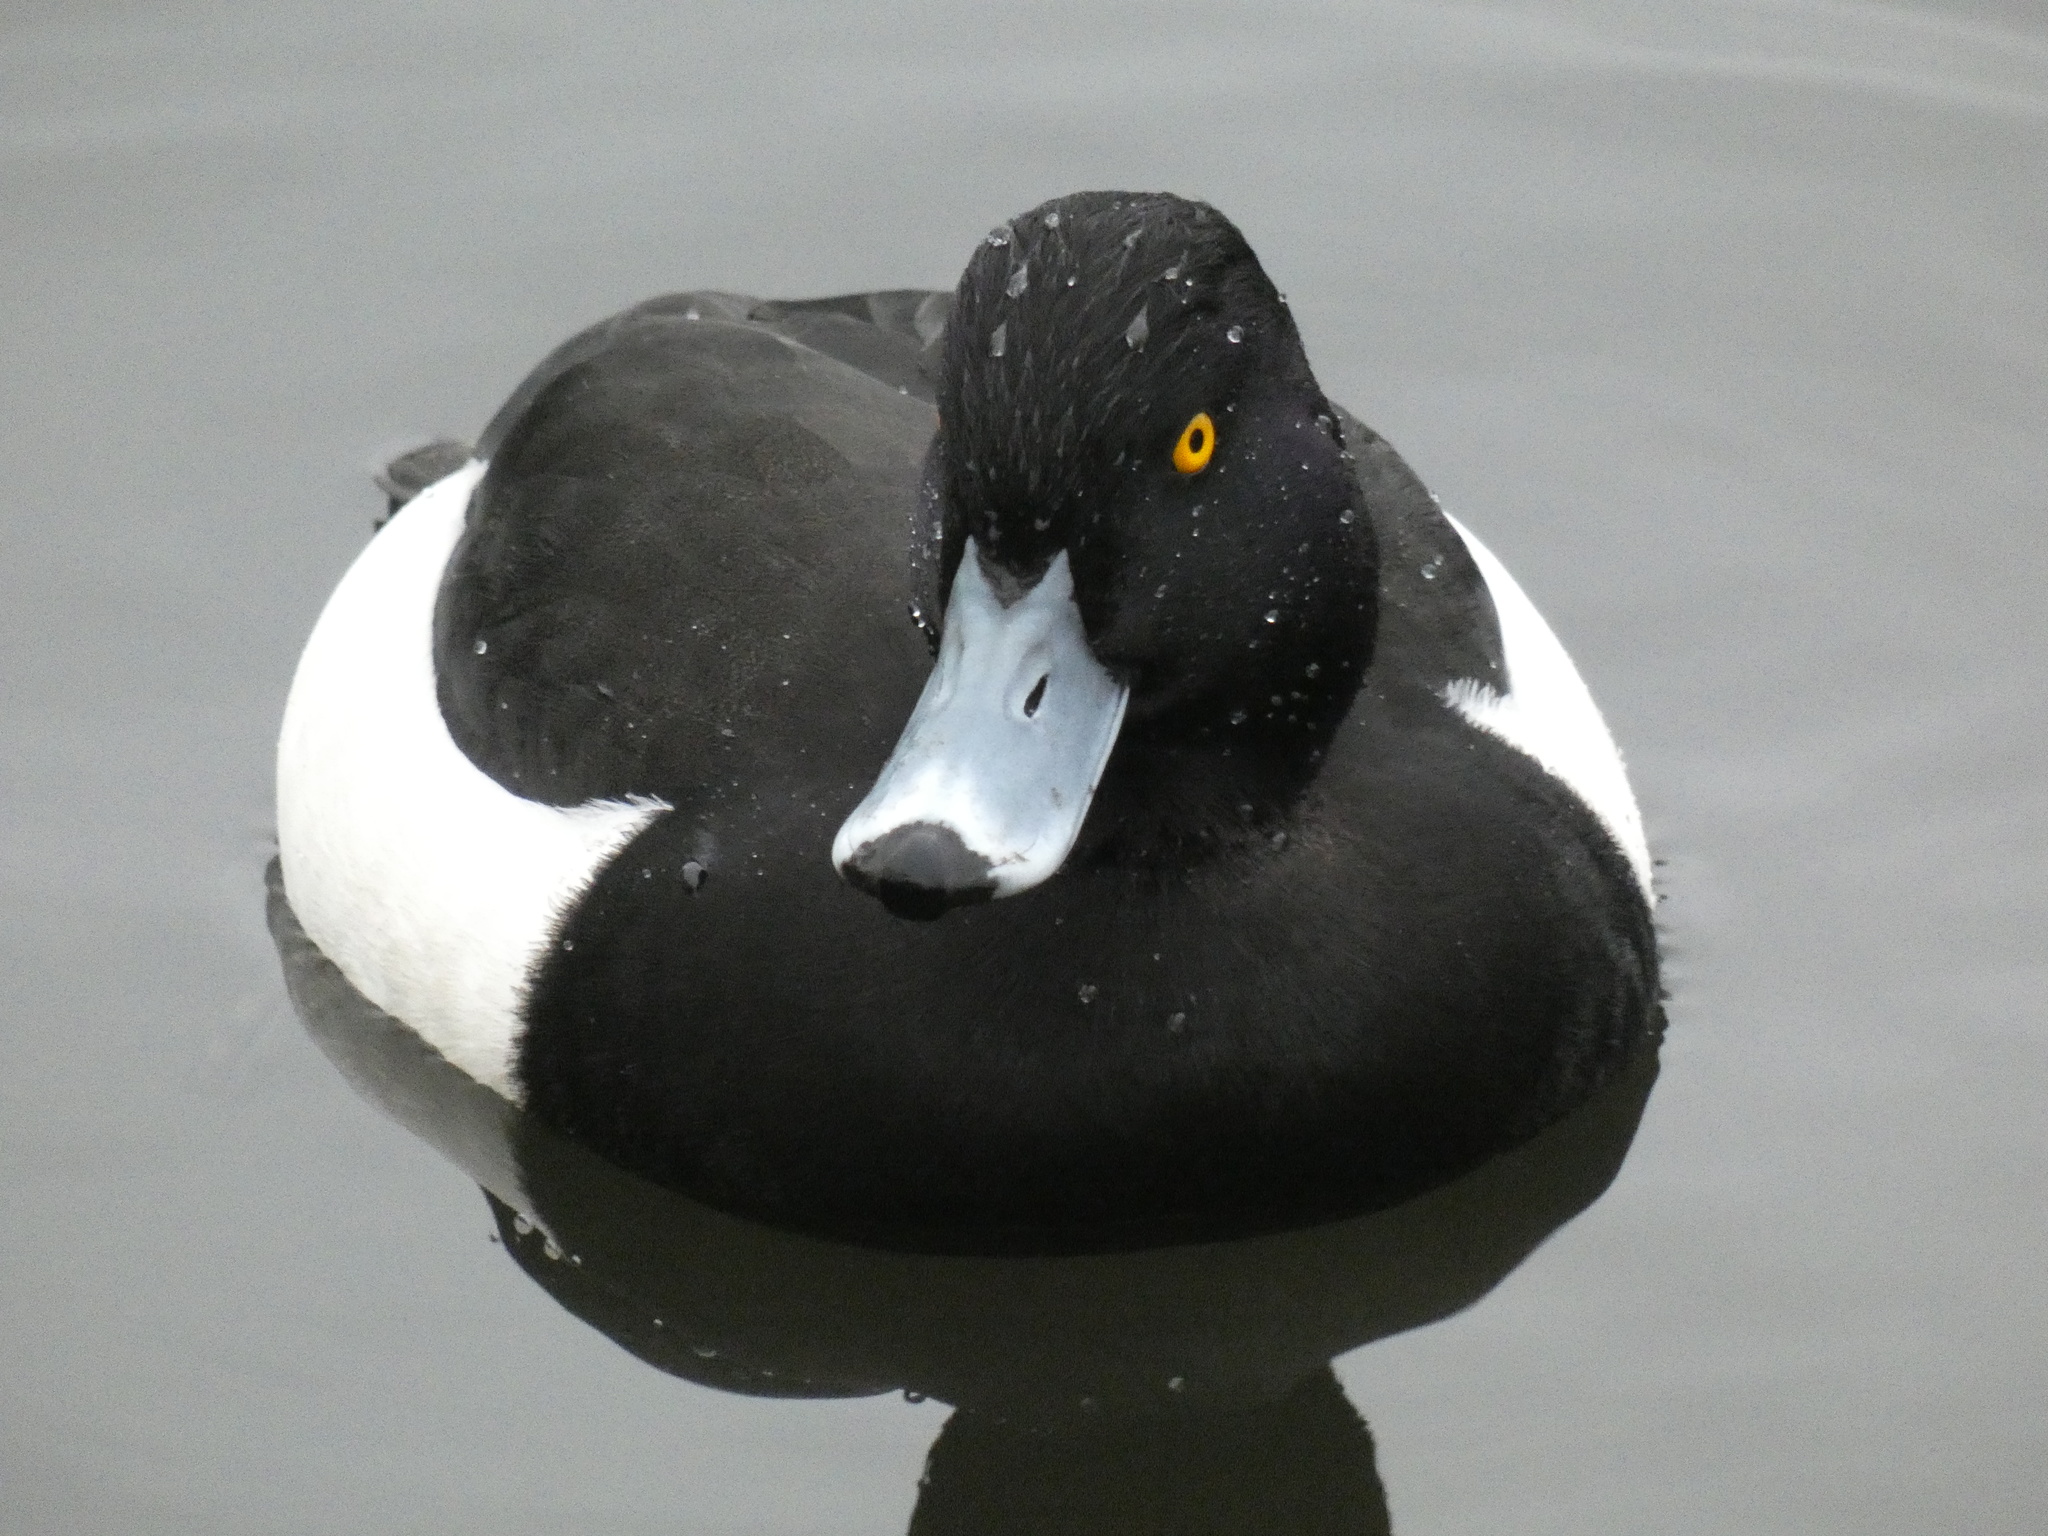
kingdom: Animalia
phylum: Chordata
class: Aves
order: Anseriformes
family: Anatidae
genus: Aythya
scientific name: Aythya fuligula
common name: Tufted duck
